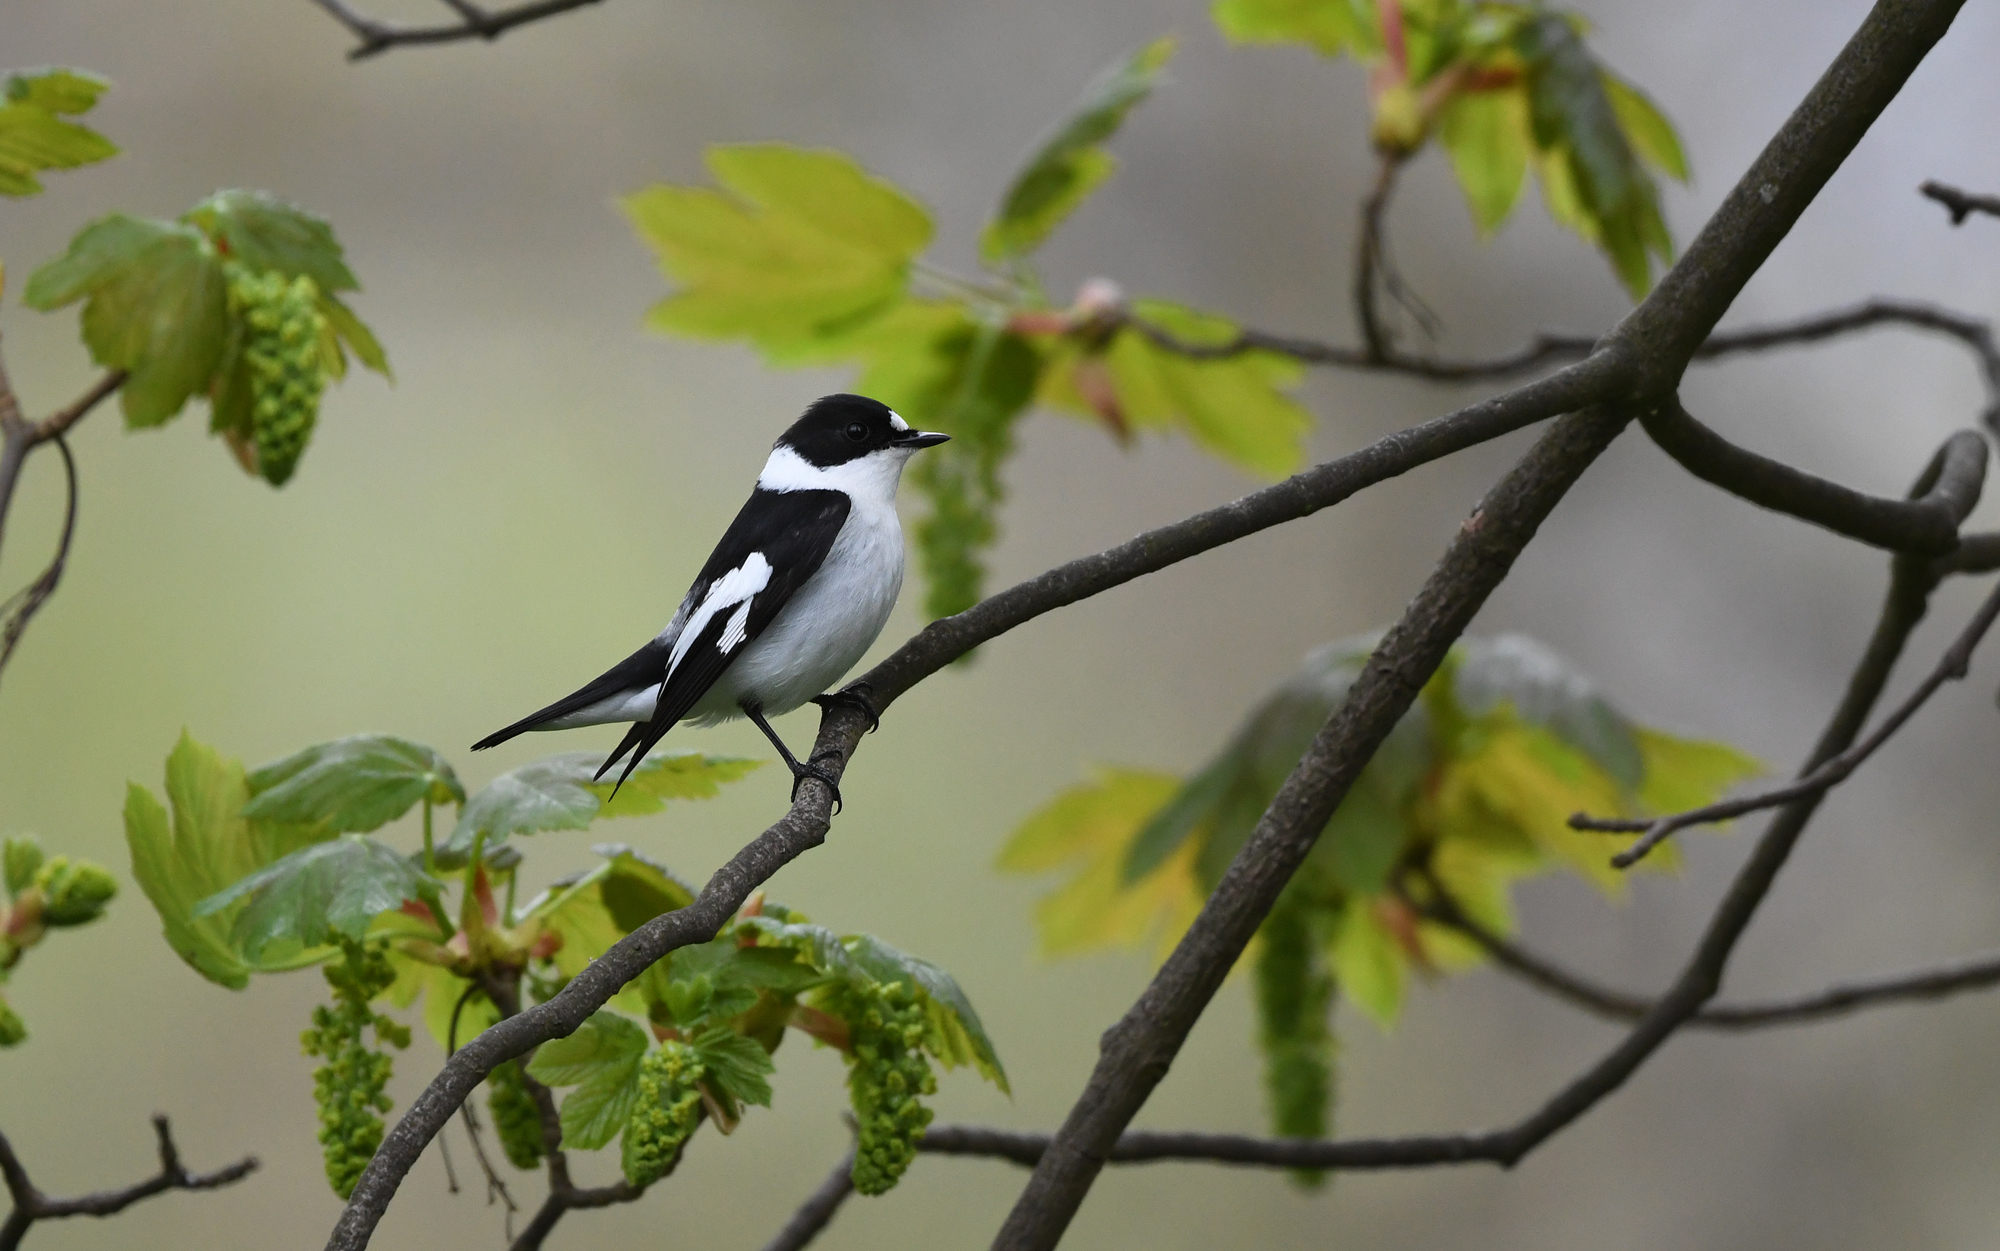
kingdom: Animalia
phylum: Chordata
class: Aves
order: Passeriformes
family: Muscicapidae
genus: Ficedula
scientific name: Ficedula albicollis
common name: Collared flycatcher
